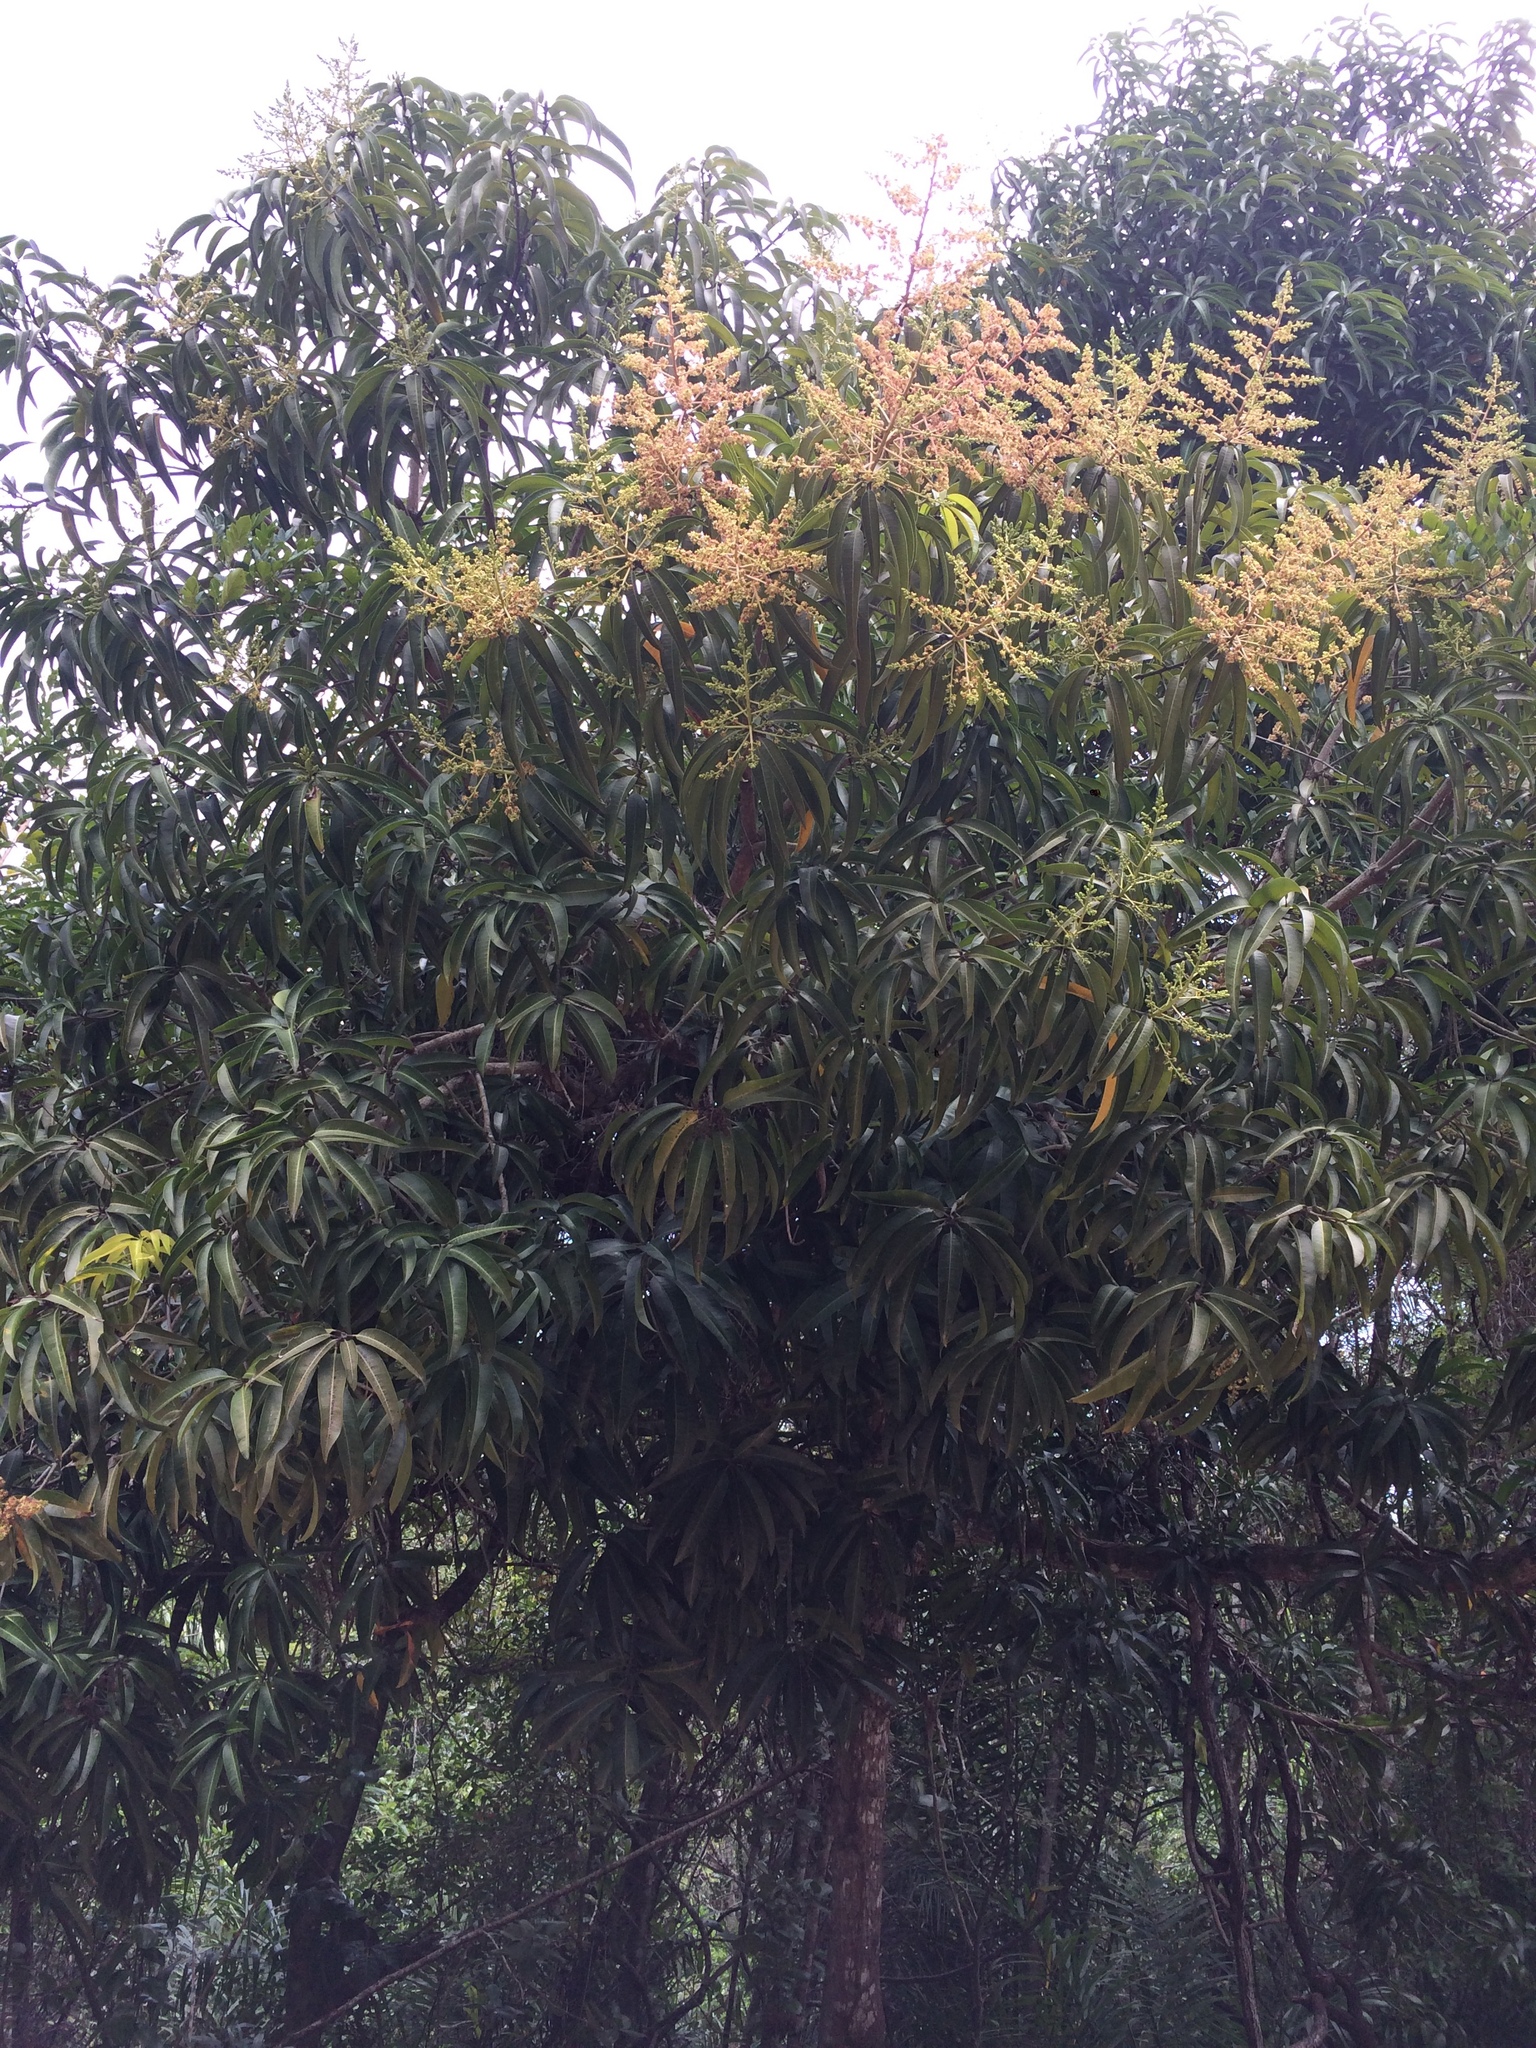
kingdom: Plantae
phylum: Tracheophyta
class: Magnoliopsida
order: Sapindales
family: Anacardiaceae
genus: Mangifera
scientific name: Mangifera indica
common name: Mango
